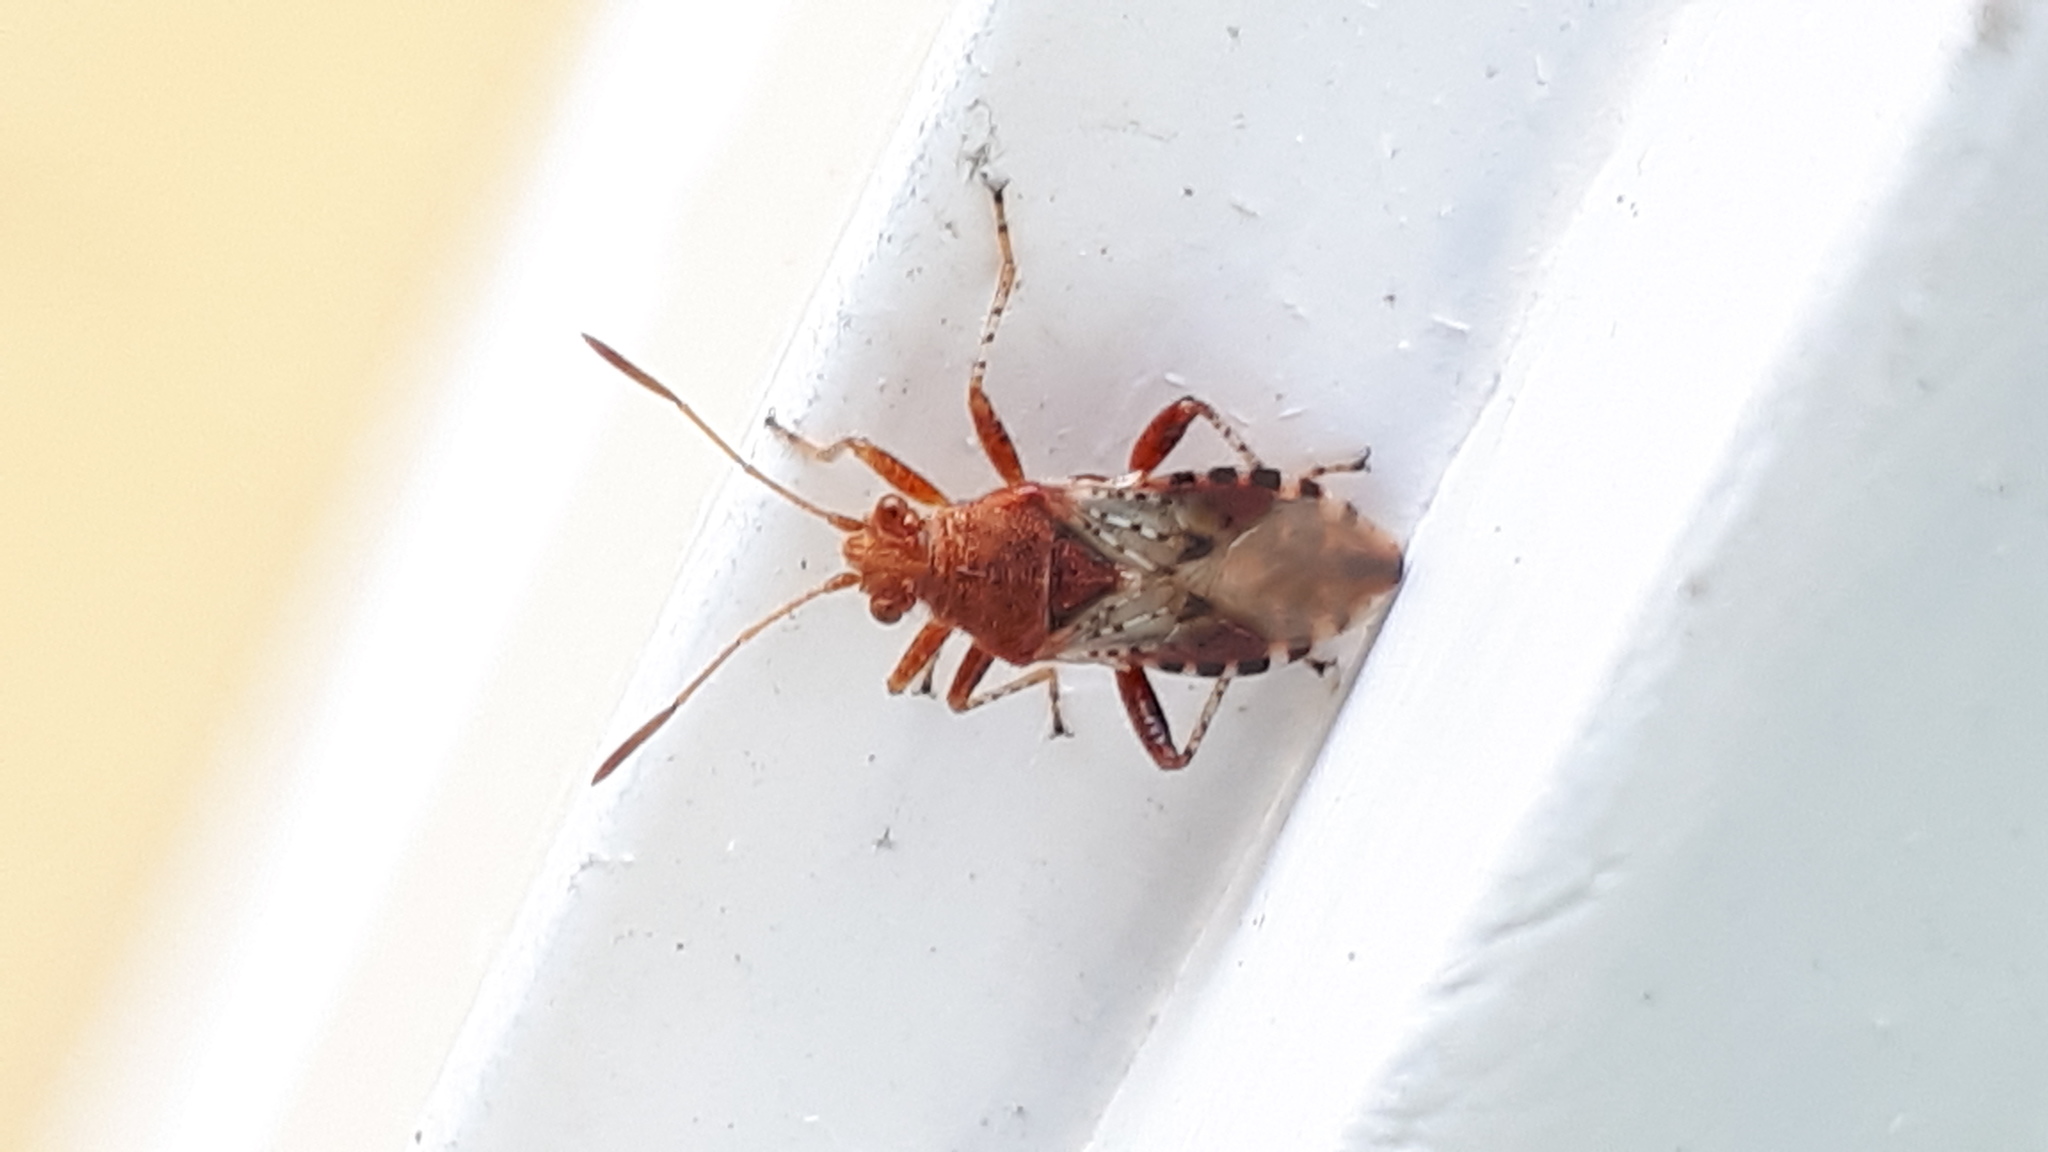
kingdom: Animalia
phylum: Arthropoda
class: Insecta
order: Hemiptera
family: Rhopalidae
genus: Rhopalus
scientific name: Rhopalus subrufus
